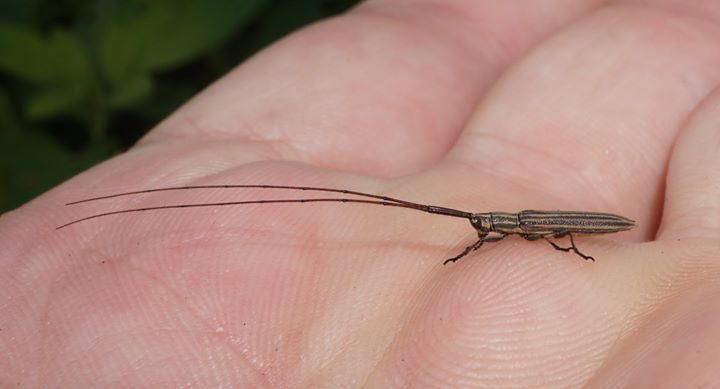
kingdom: Animalia
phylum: Arthropoda
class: Insecta
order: Coleoptera
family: Cerambycidae
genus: Hippopsis
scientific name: Hippopsis
